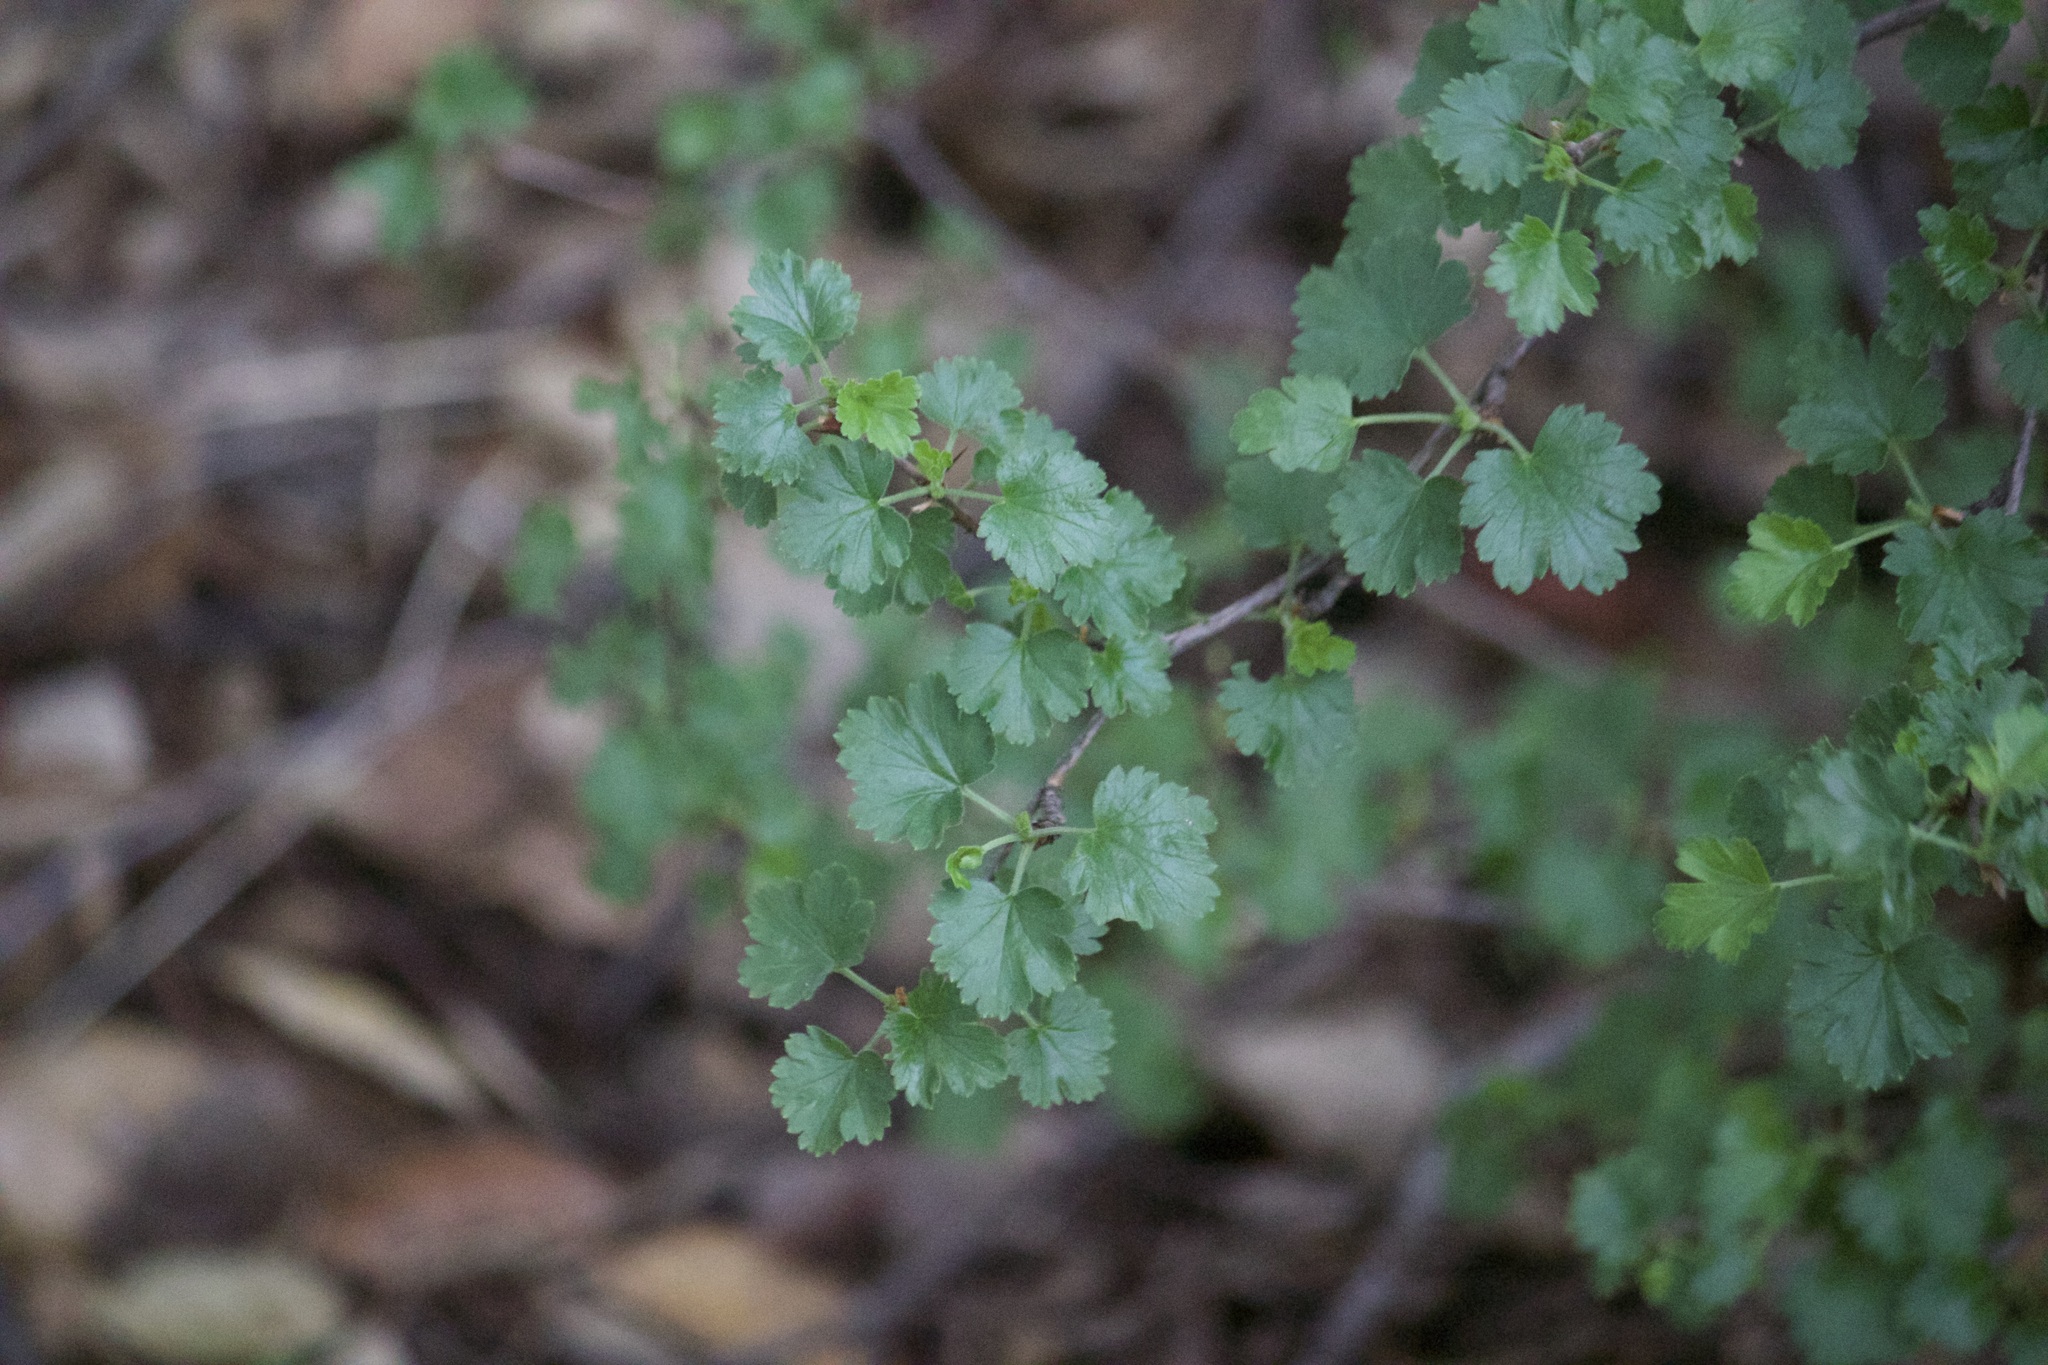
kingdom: Plantae
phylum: Tracheophyta
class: Magnoliopsida
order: Saxifragales
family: Grossulariaceae
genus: Ribes
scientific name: Ribes californicum
